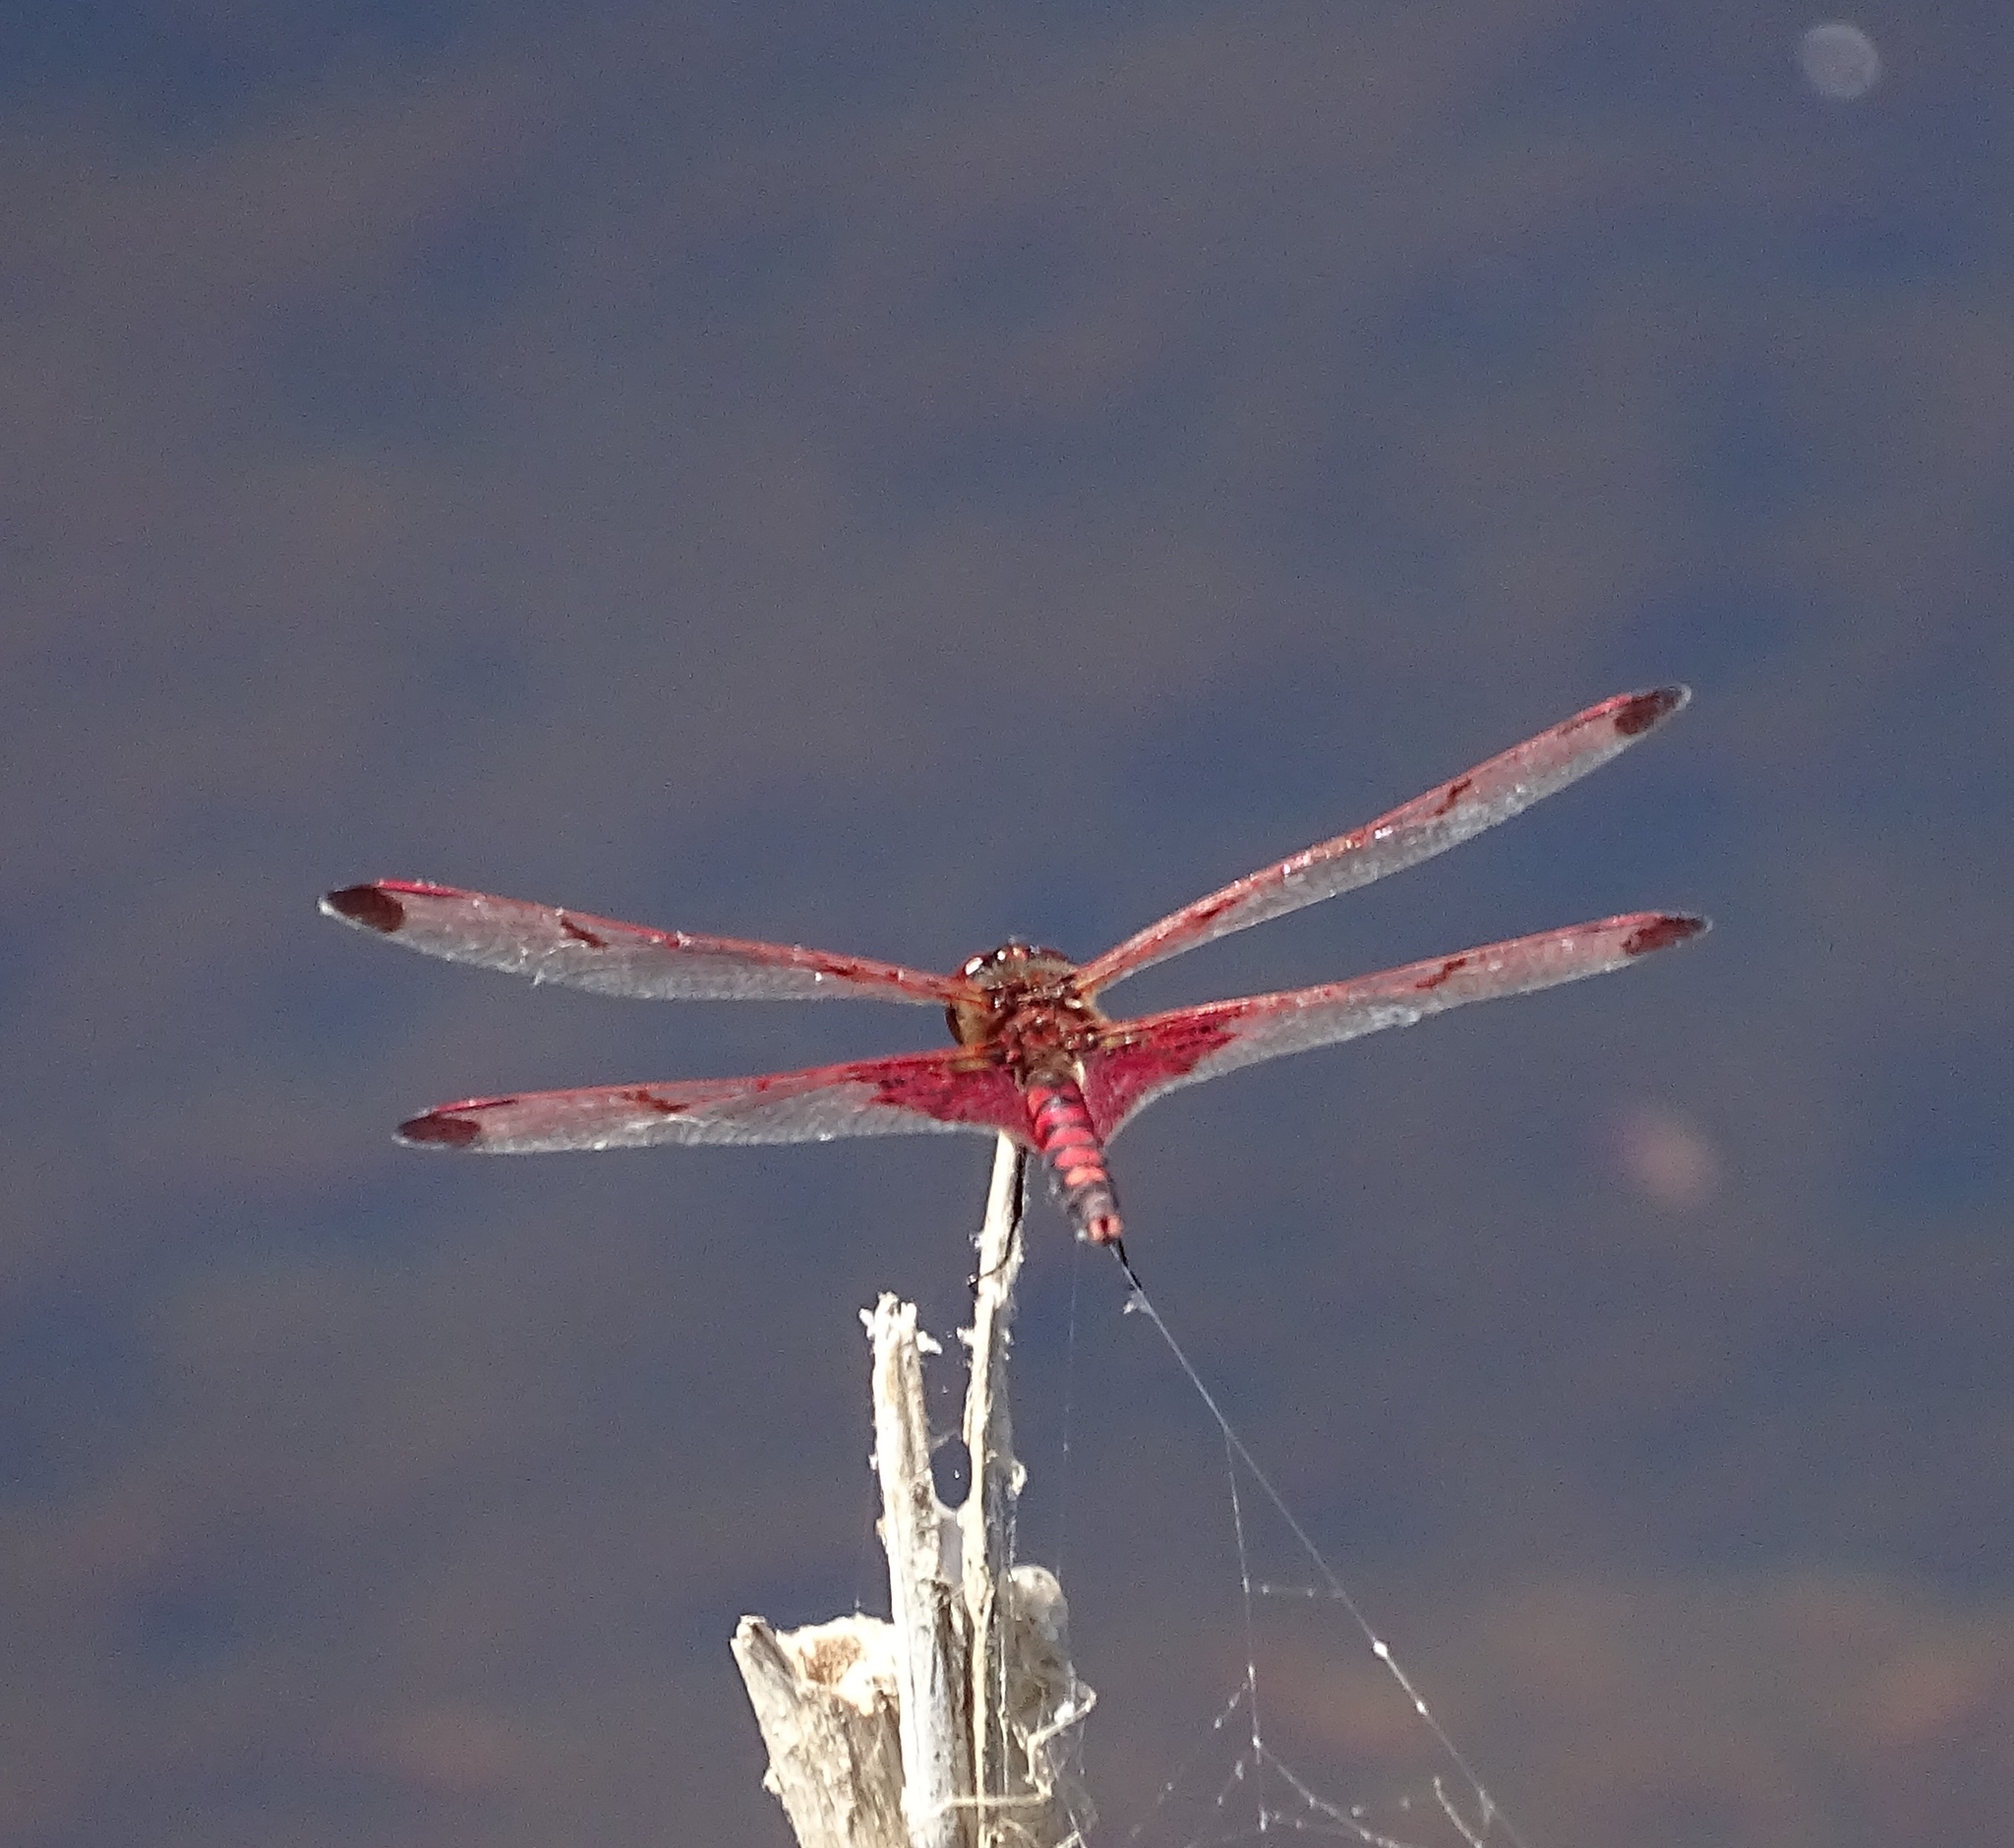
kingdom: Animalia
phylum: Arthropoda
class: Insecta
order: Odonata
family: Libellulidae
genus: Celithemis
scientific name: Celithemis elisa
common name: Calico pennant
